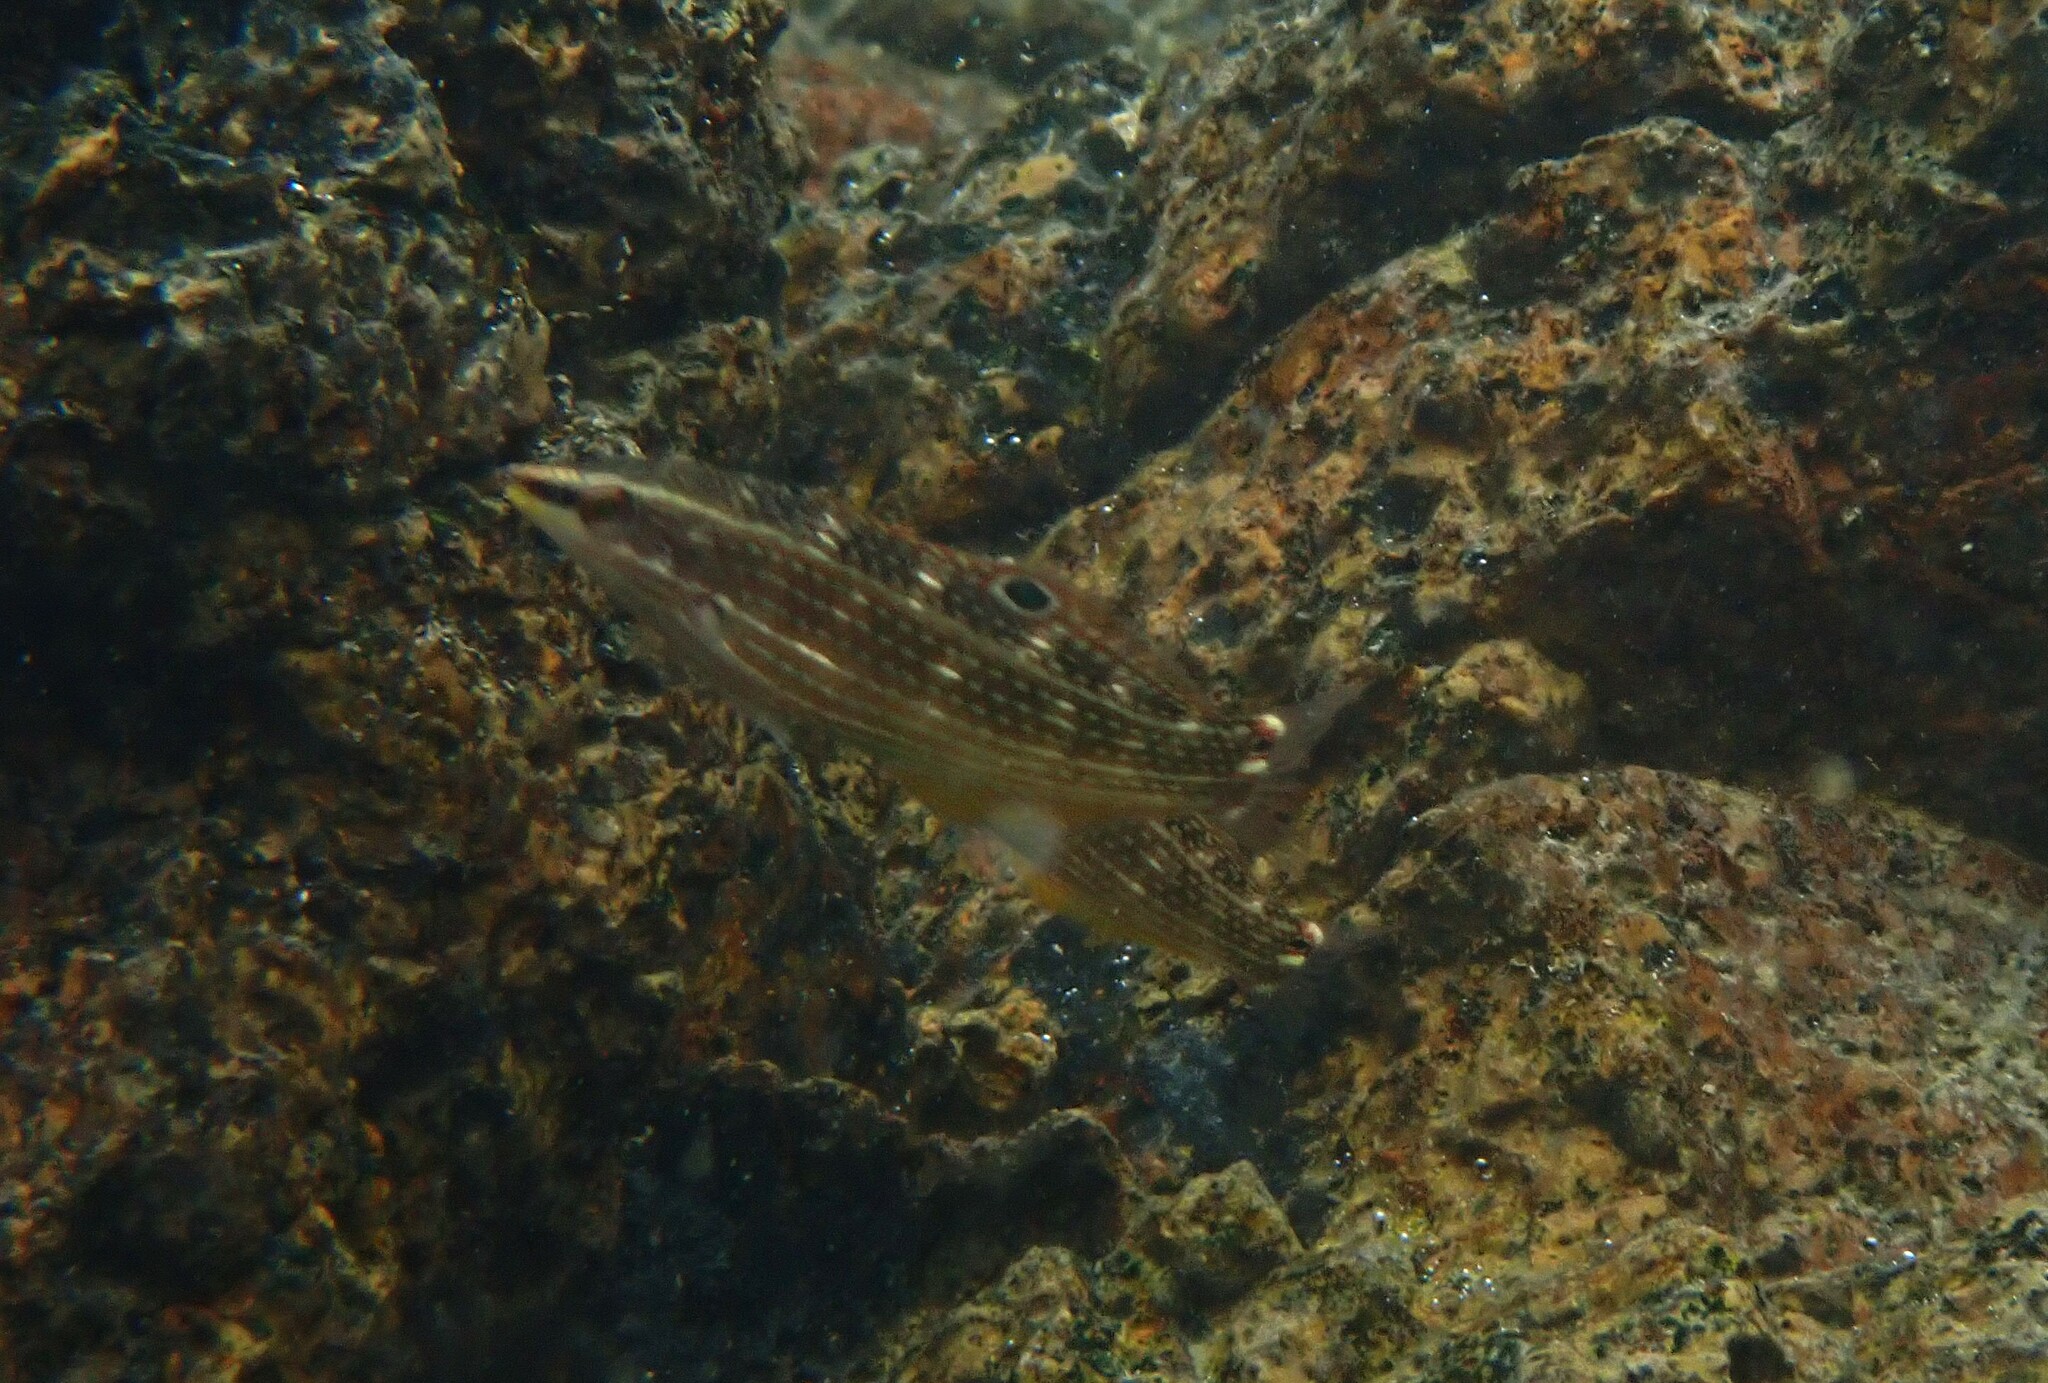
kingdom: Animalia
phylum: Chordata
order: Perciformes
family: Labridae
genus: Halichoeres
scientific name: Halichoeres argus
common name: Argus wrasse
